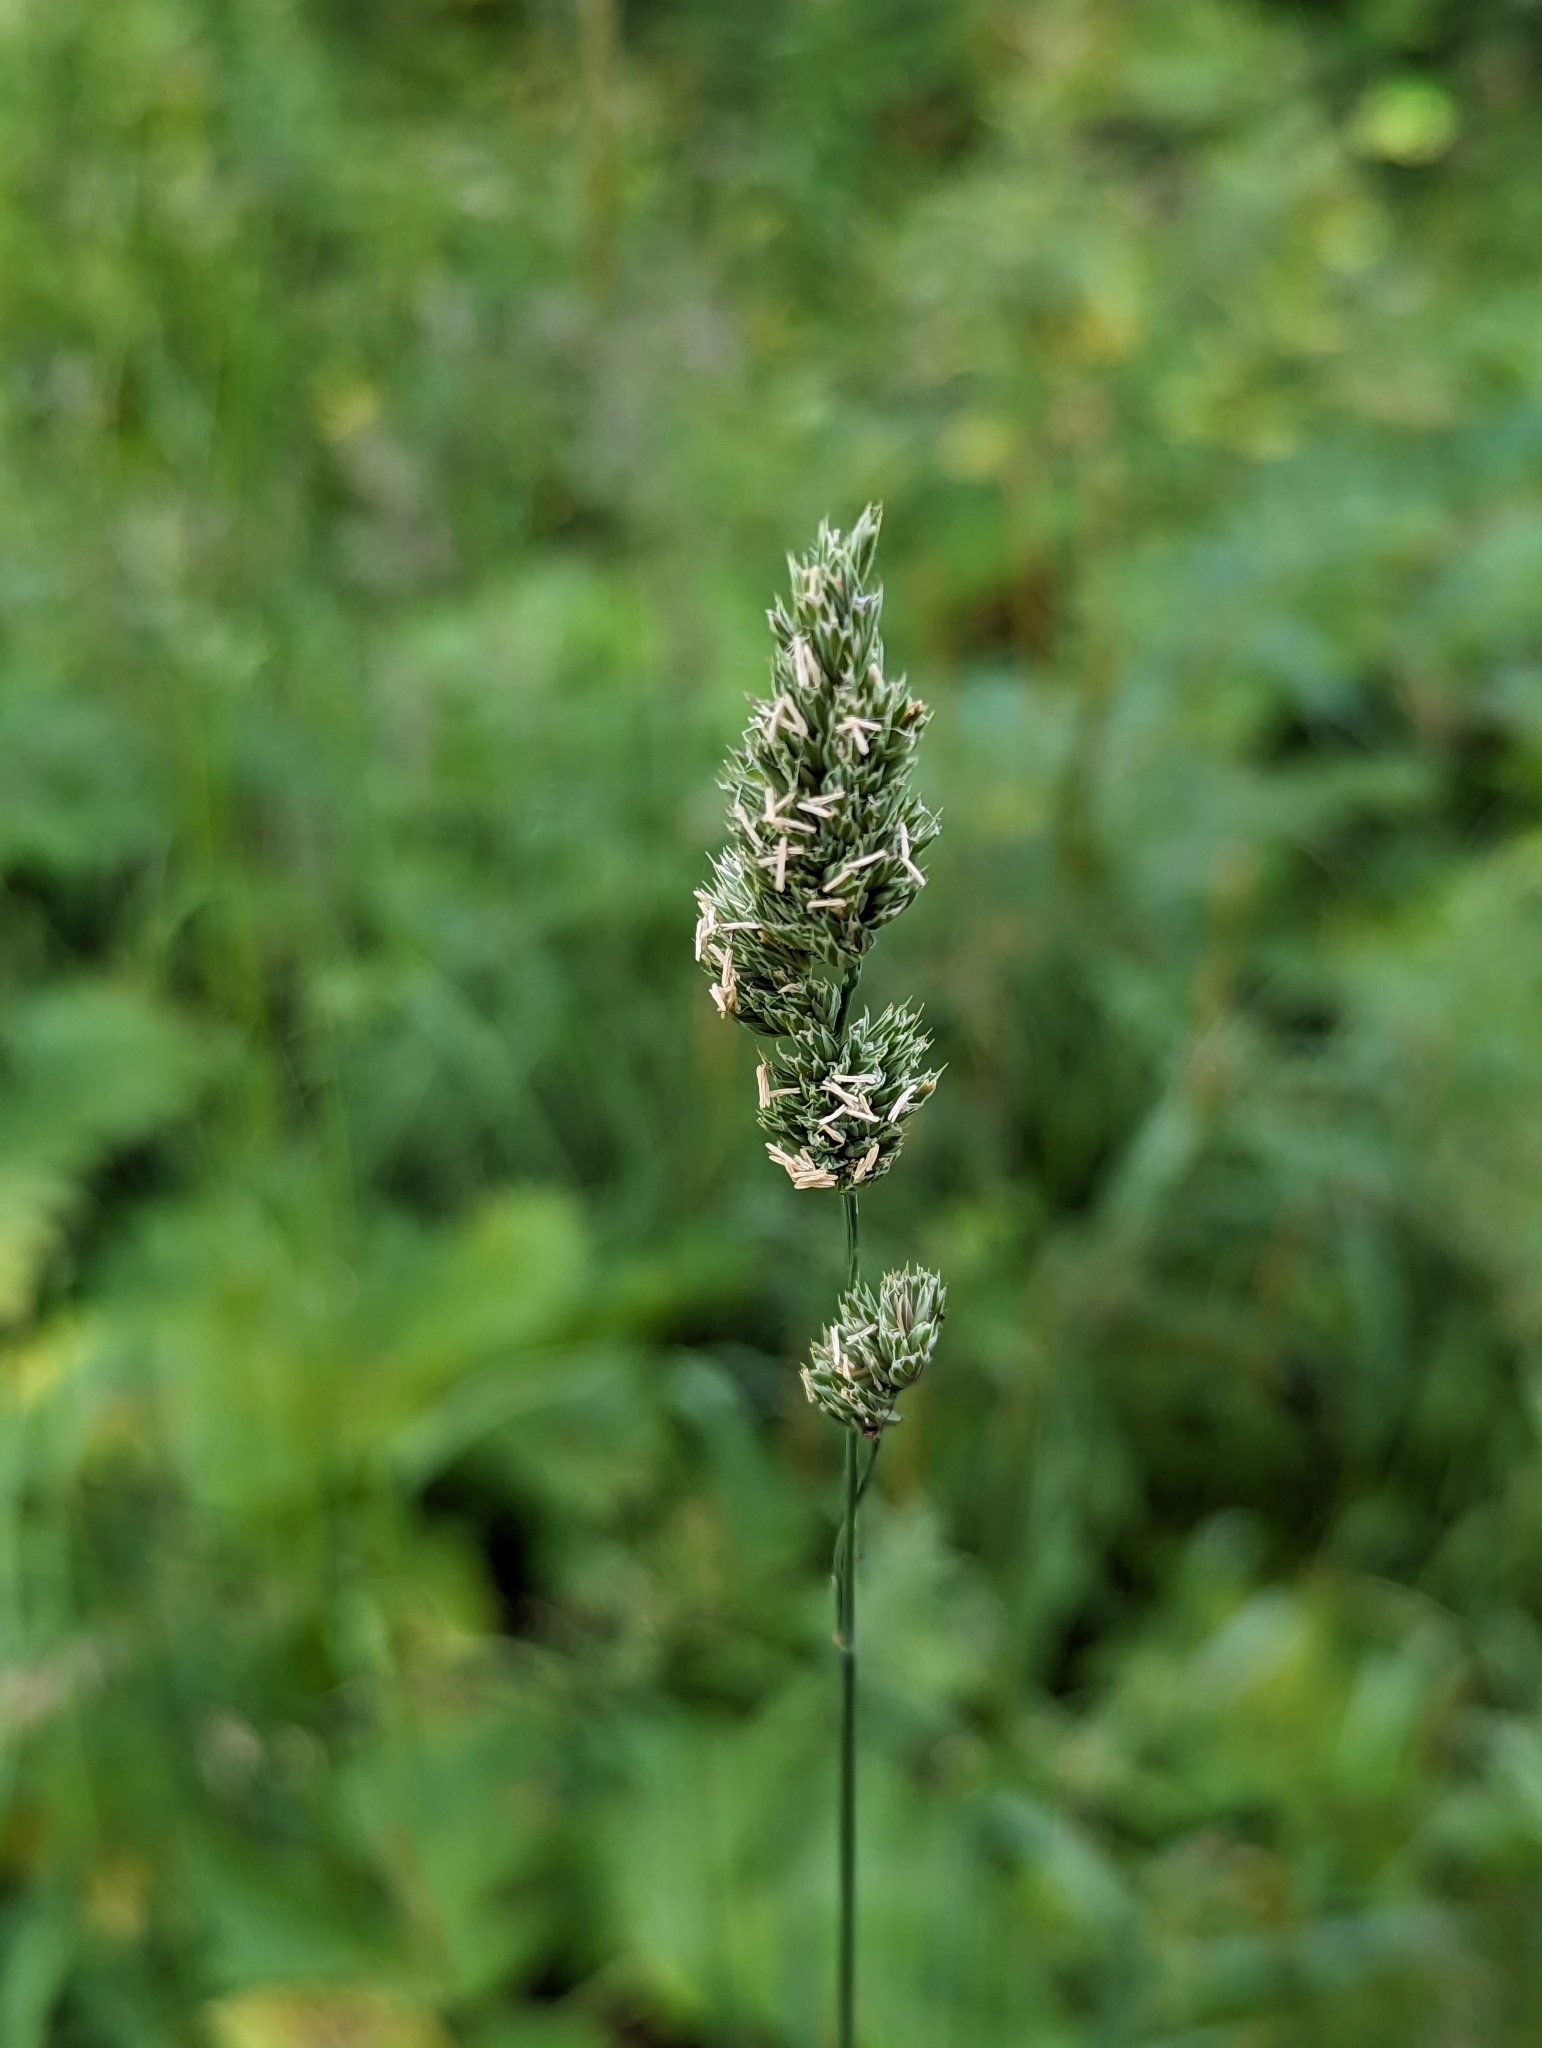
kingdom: Plantae
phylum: Tracheophyta
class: Liliopsida
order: Poales
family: Poaceae
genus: Dactylis
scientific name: Dactylis glomerata
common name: Orchardgrass
